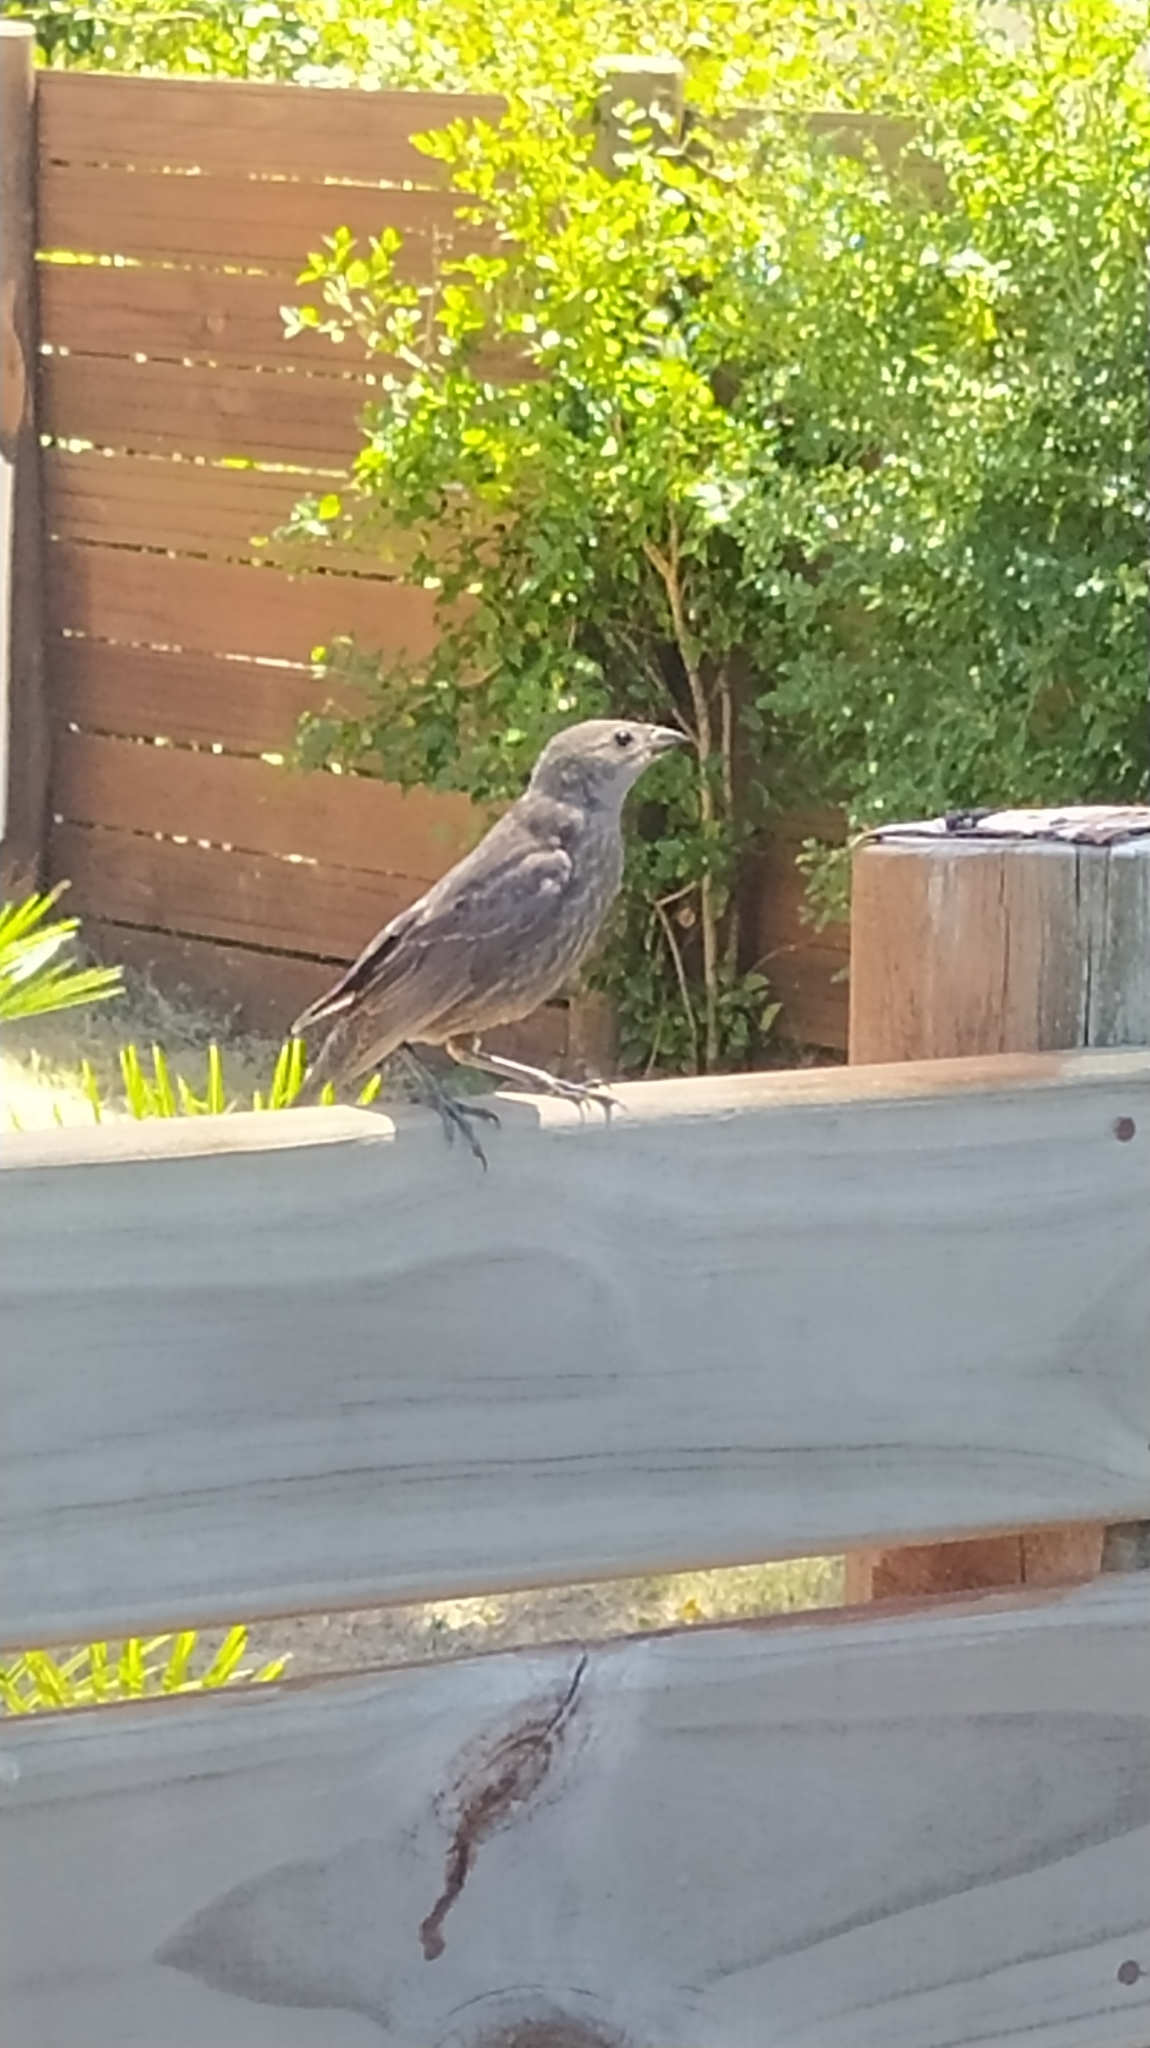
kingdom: Animalia
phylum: Chordata
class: Aves
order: Passeriformes
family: Icteridae
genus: Molothrus
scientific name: Molothrus bonariensis
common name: Shiny cowbird
